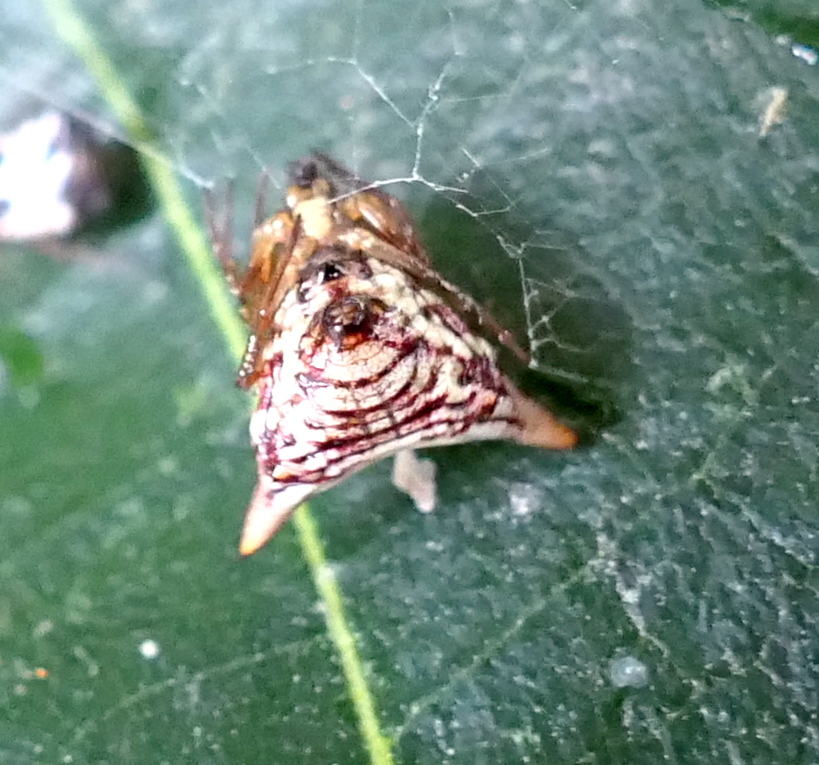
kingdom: Animalia
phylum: Arthropoda
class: Arachnida
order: Araneae
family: Araneidae
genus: Micrathena
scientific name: Micrathena evansi
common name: Orb weavers
